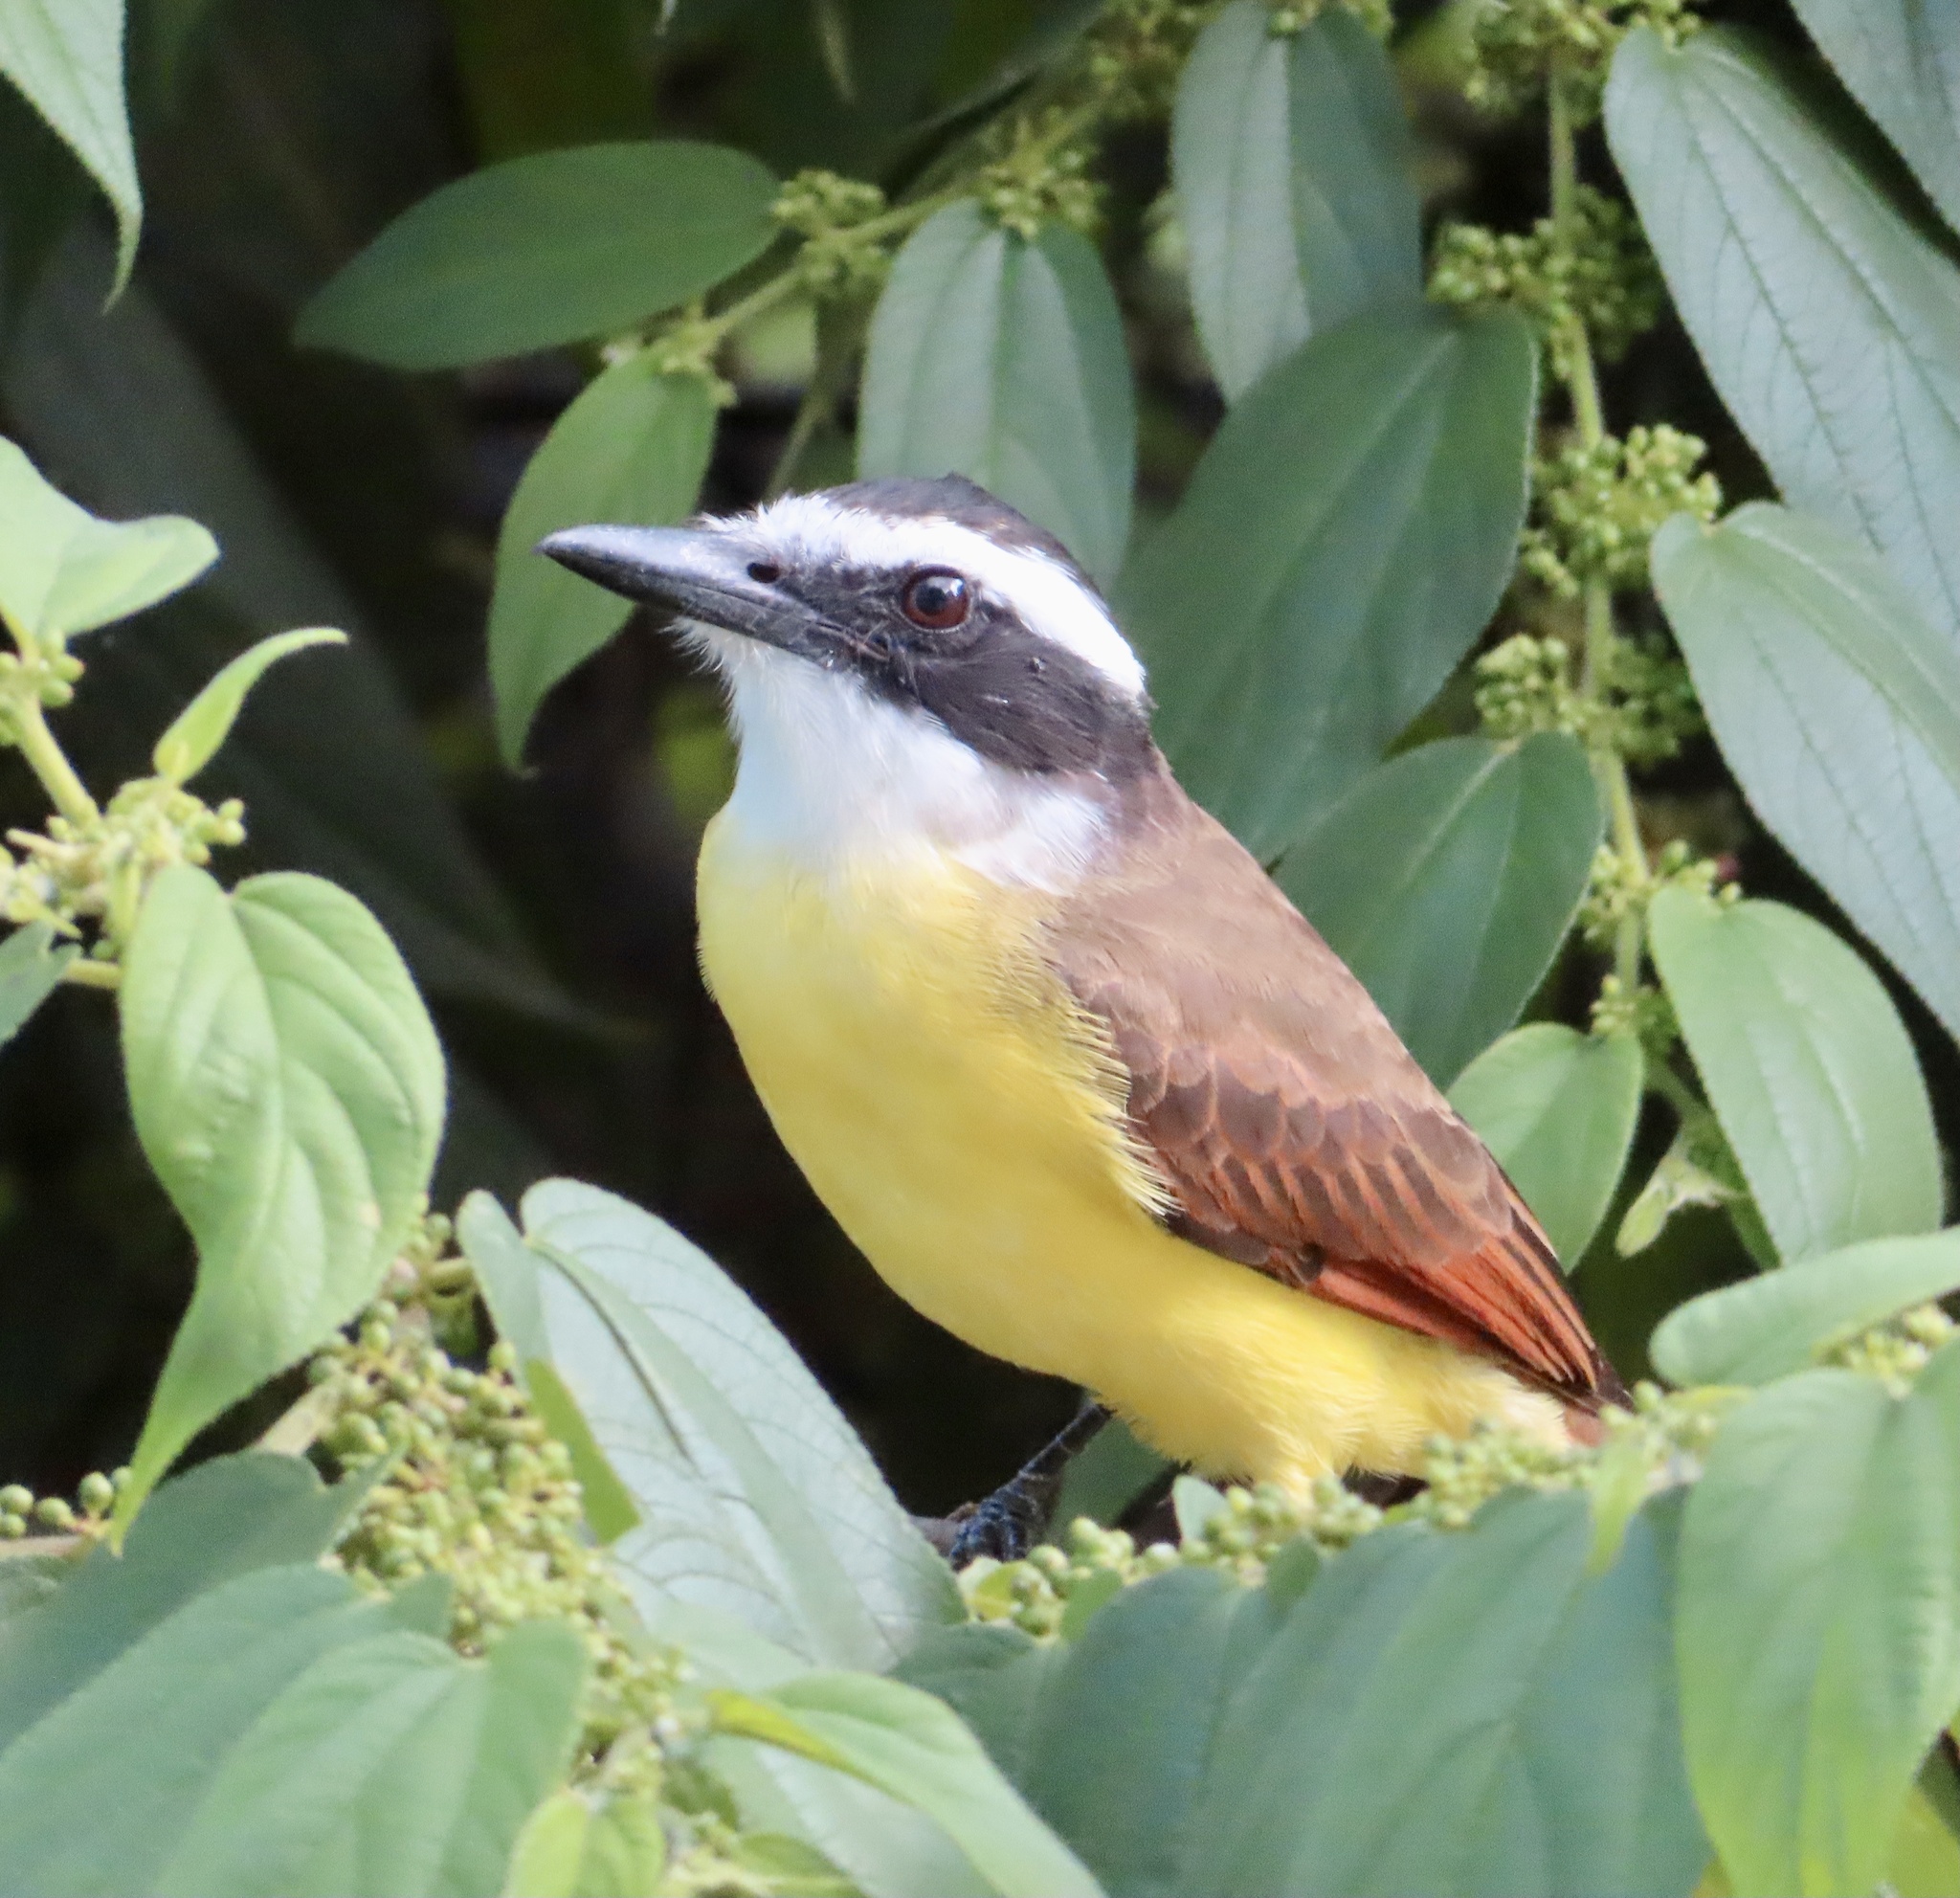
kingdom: Animalia
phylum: Chordata
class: Aves
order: Passeriformes
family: Tyrannidae
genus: Pitangus
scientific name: Pitangus sulphuratus
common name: Great kiskadee
